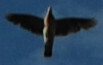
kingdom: Animalia
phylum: Chordata
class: Aves
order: Columbiformes
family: Columbidae
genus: Columba
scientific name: Columba palumbus
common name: Common wood pigeon
